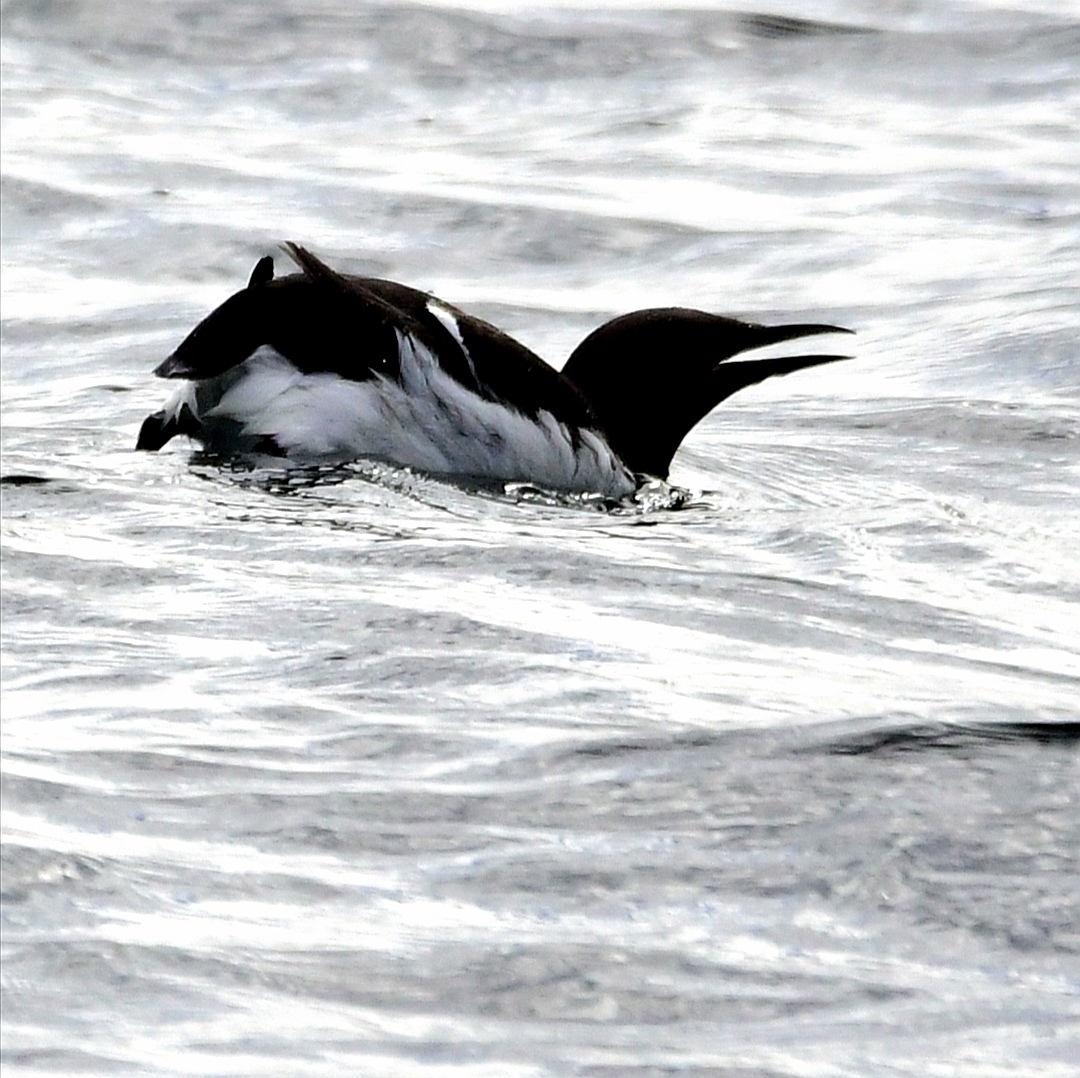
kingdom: Animalia
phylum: Chordata
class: Aves
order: Charadriiformes
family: Alcidae
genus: Uria
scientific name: Uria aalge
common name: Common murre
